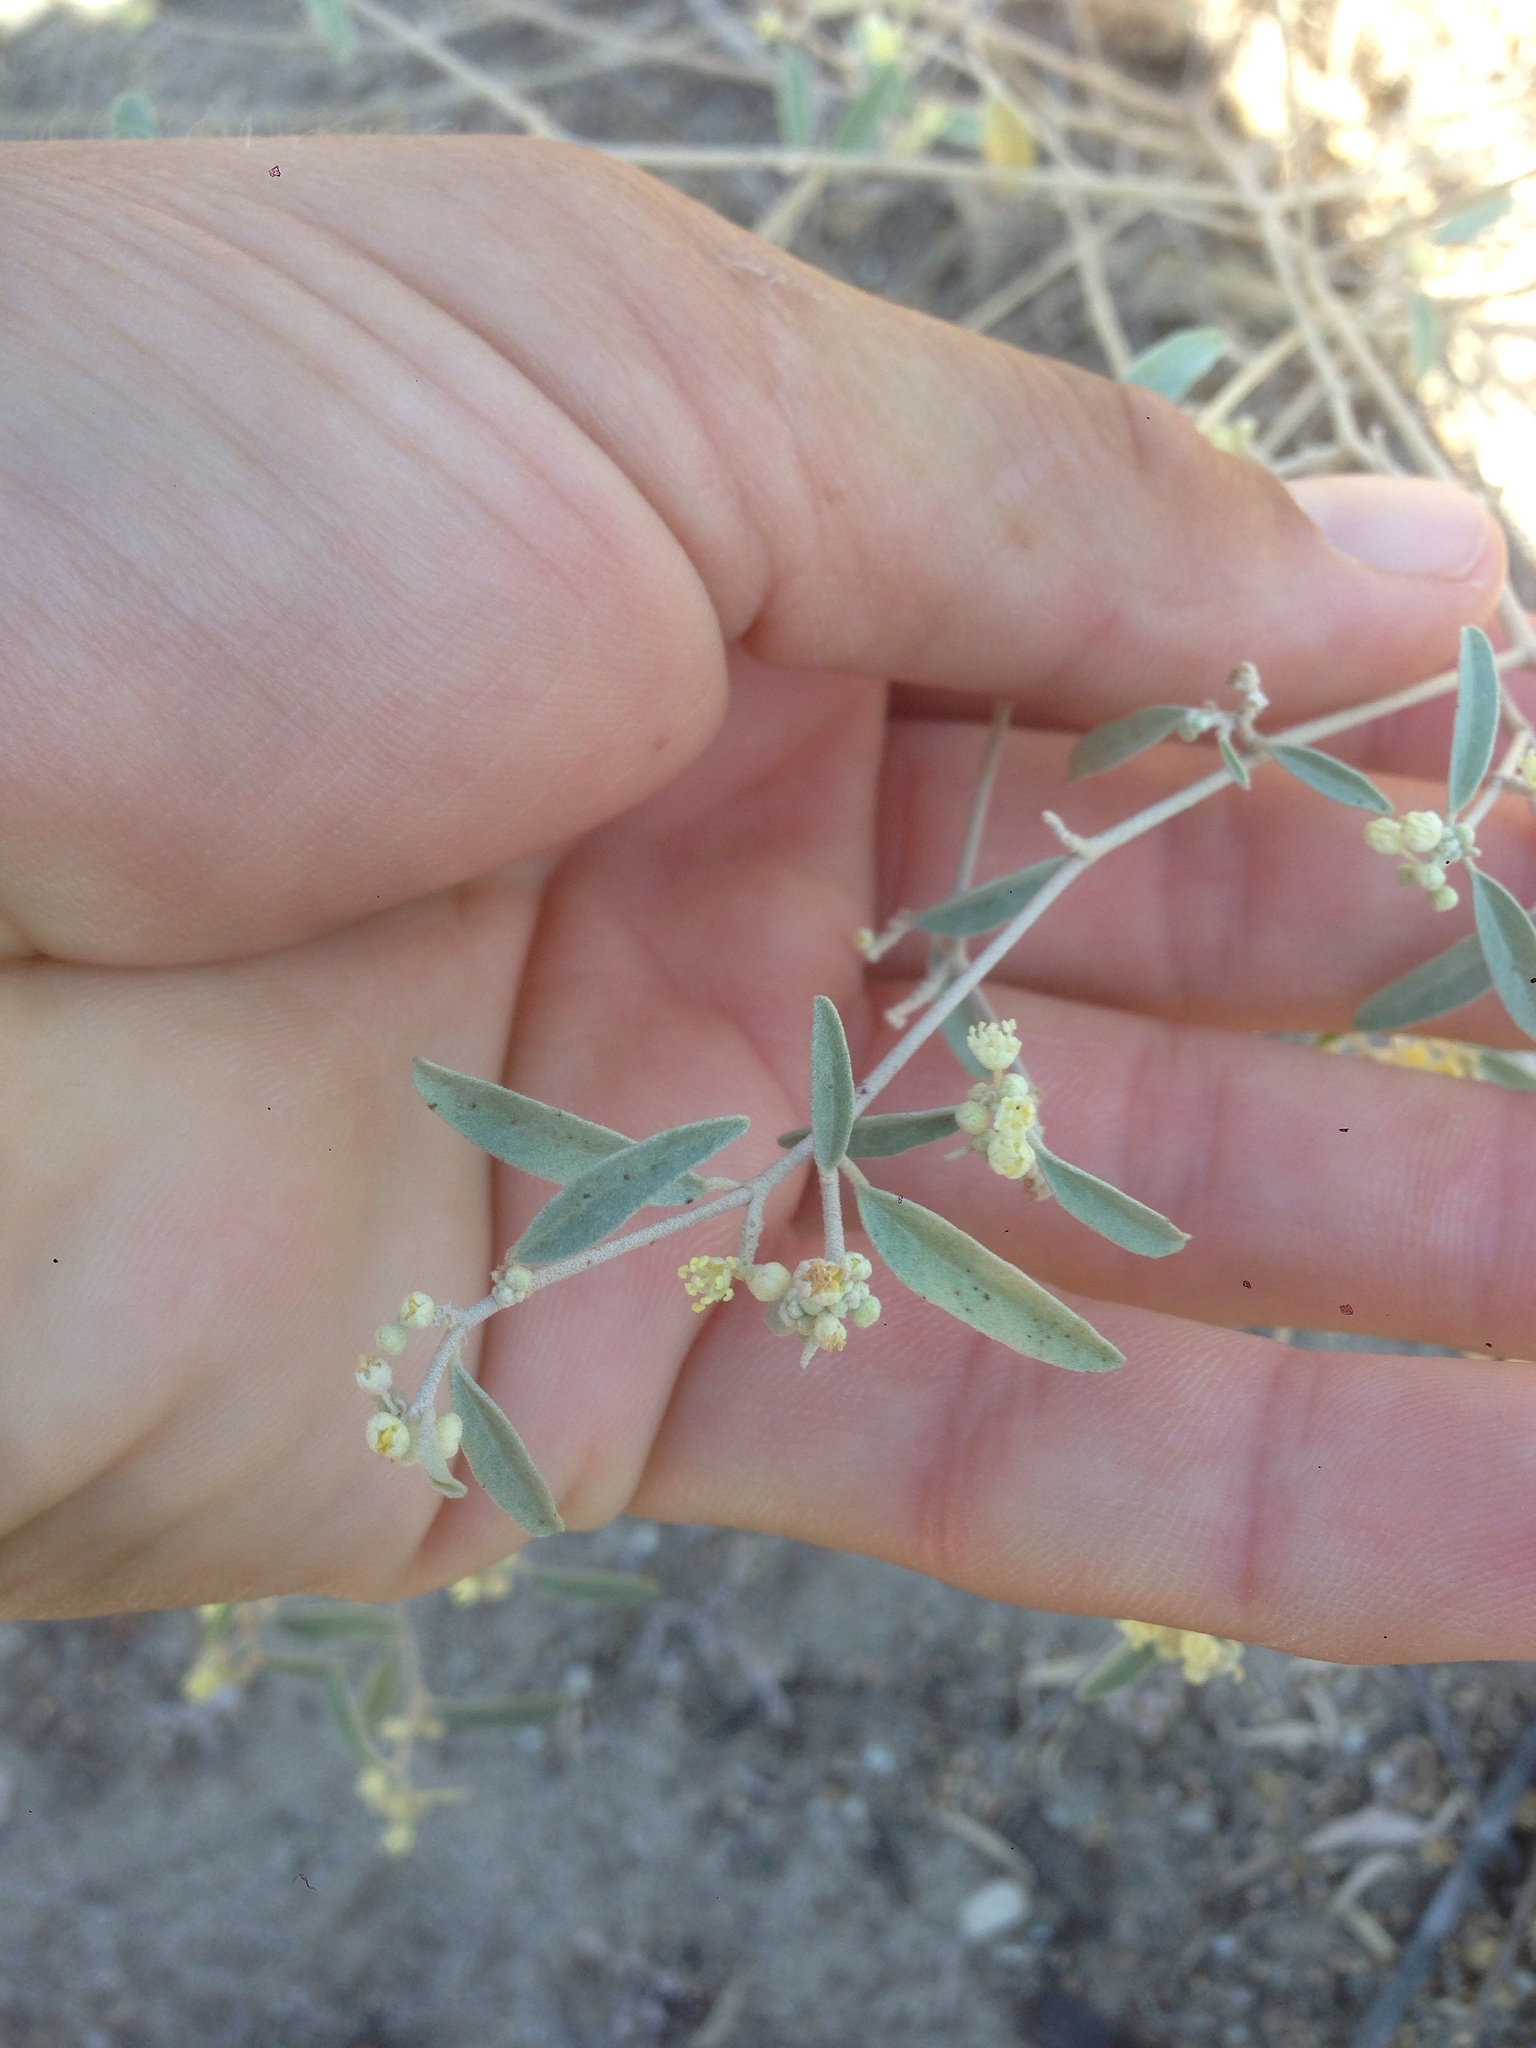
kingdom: Plantae
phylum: Tracheophyta
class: Magnoliopsida
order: Malpighiales
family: Euphorbiaceae
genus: Croton
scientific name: Croton californicus
